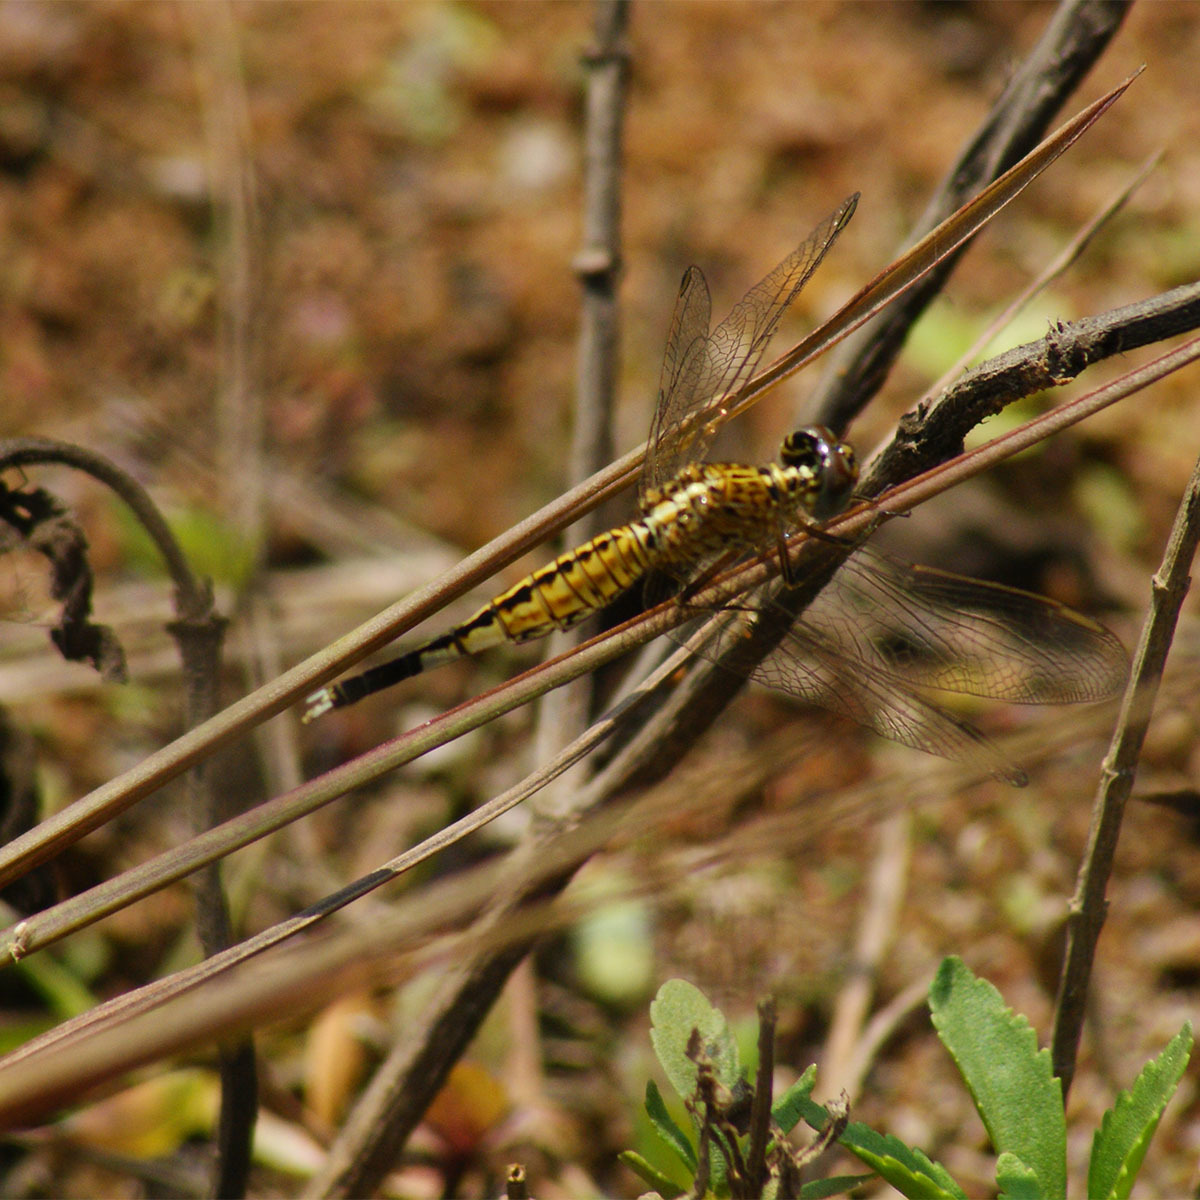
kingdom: Animalia
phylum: Arthropoda
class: Insecta
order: Odonata
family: Libellulidae
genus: Acisoma
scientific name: Acisoma panorpoides
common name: Asian pintail
